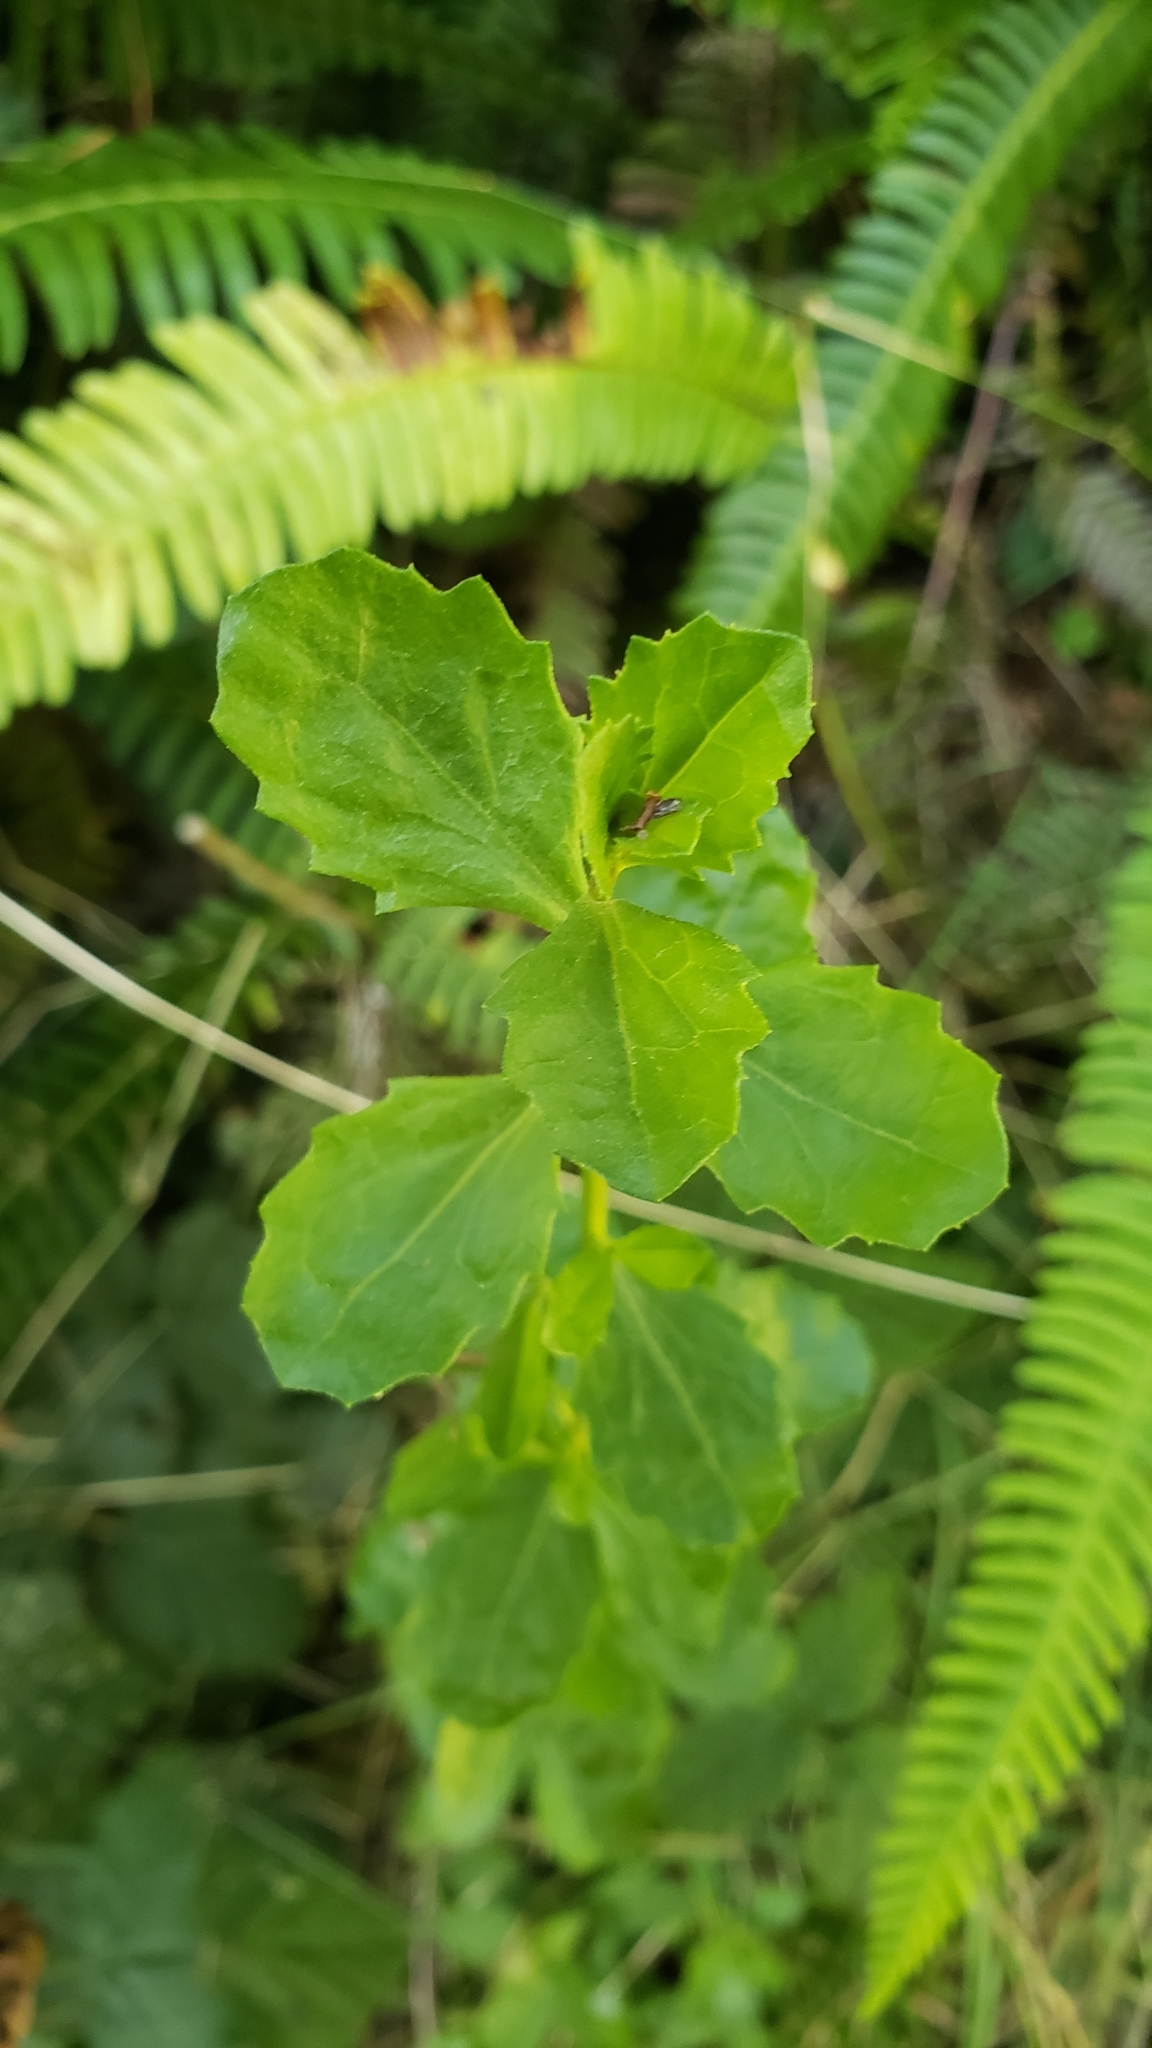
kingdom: Plantae
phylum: Tracheophyta
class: Magnoliopsida
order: Asterales
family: Asteraceae
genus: Baccharis
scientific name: Baccharis pilularis
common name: Coyotebrush
